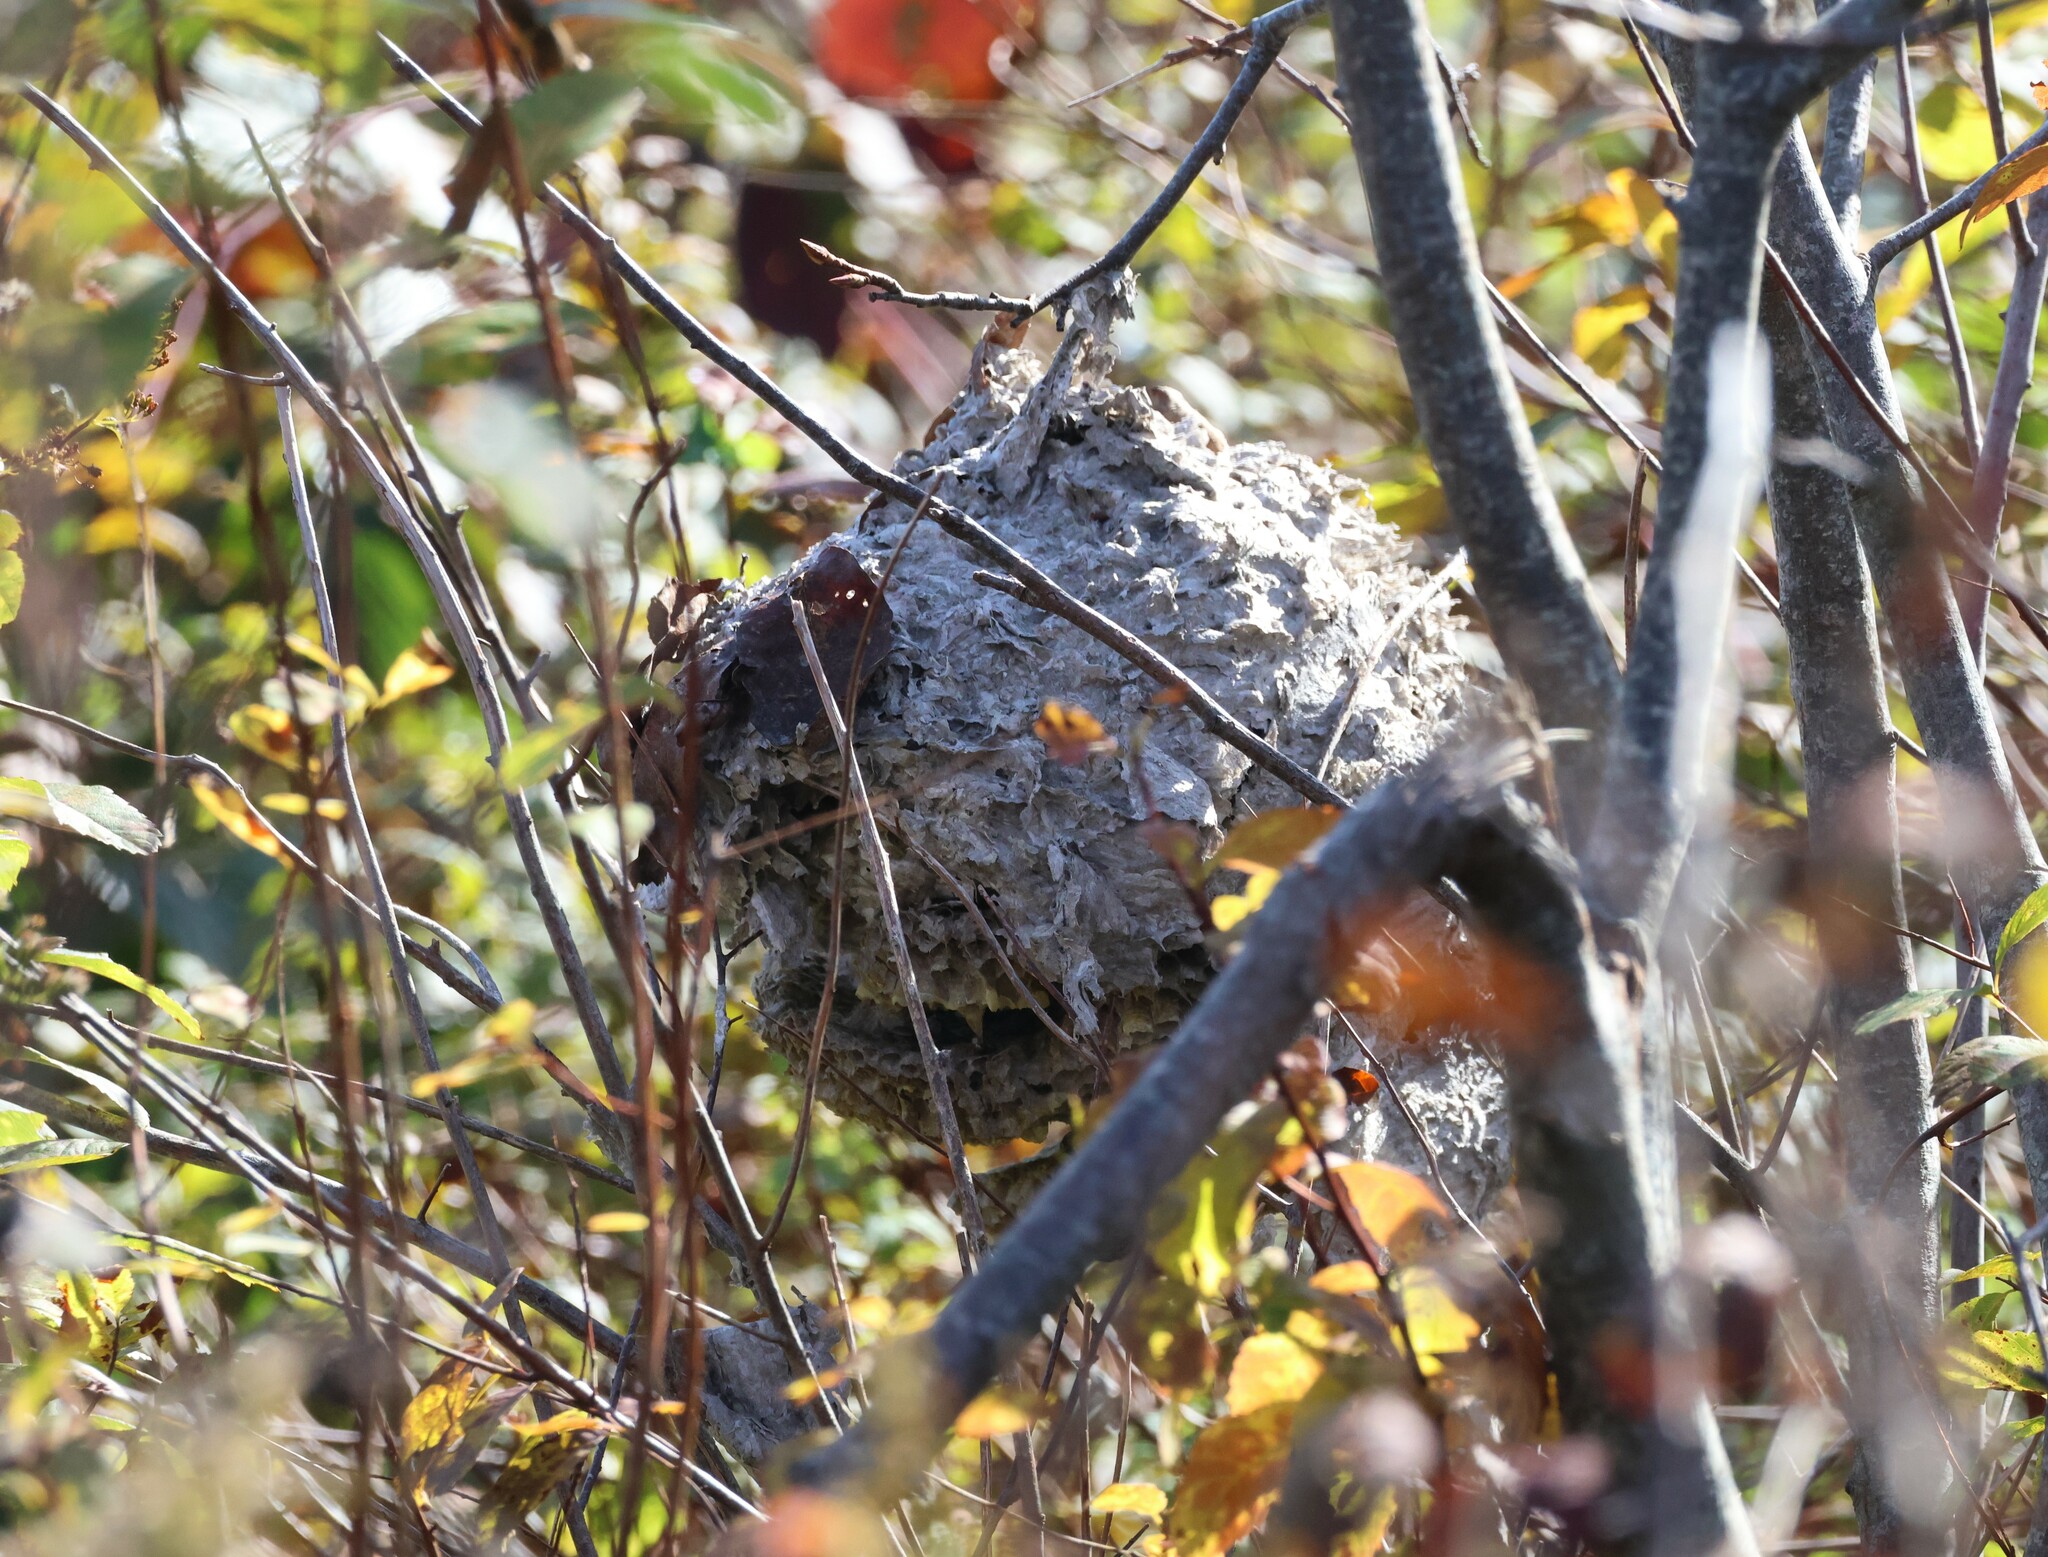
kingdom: Animalia
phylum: Arthropoda
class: Insecta
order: Hymenoptera
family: Vespidae
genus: Dolichovespula
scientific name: Dolichovespula maculata
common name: Bald-faced hornet
